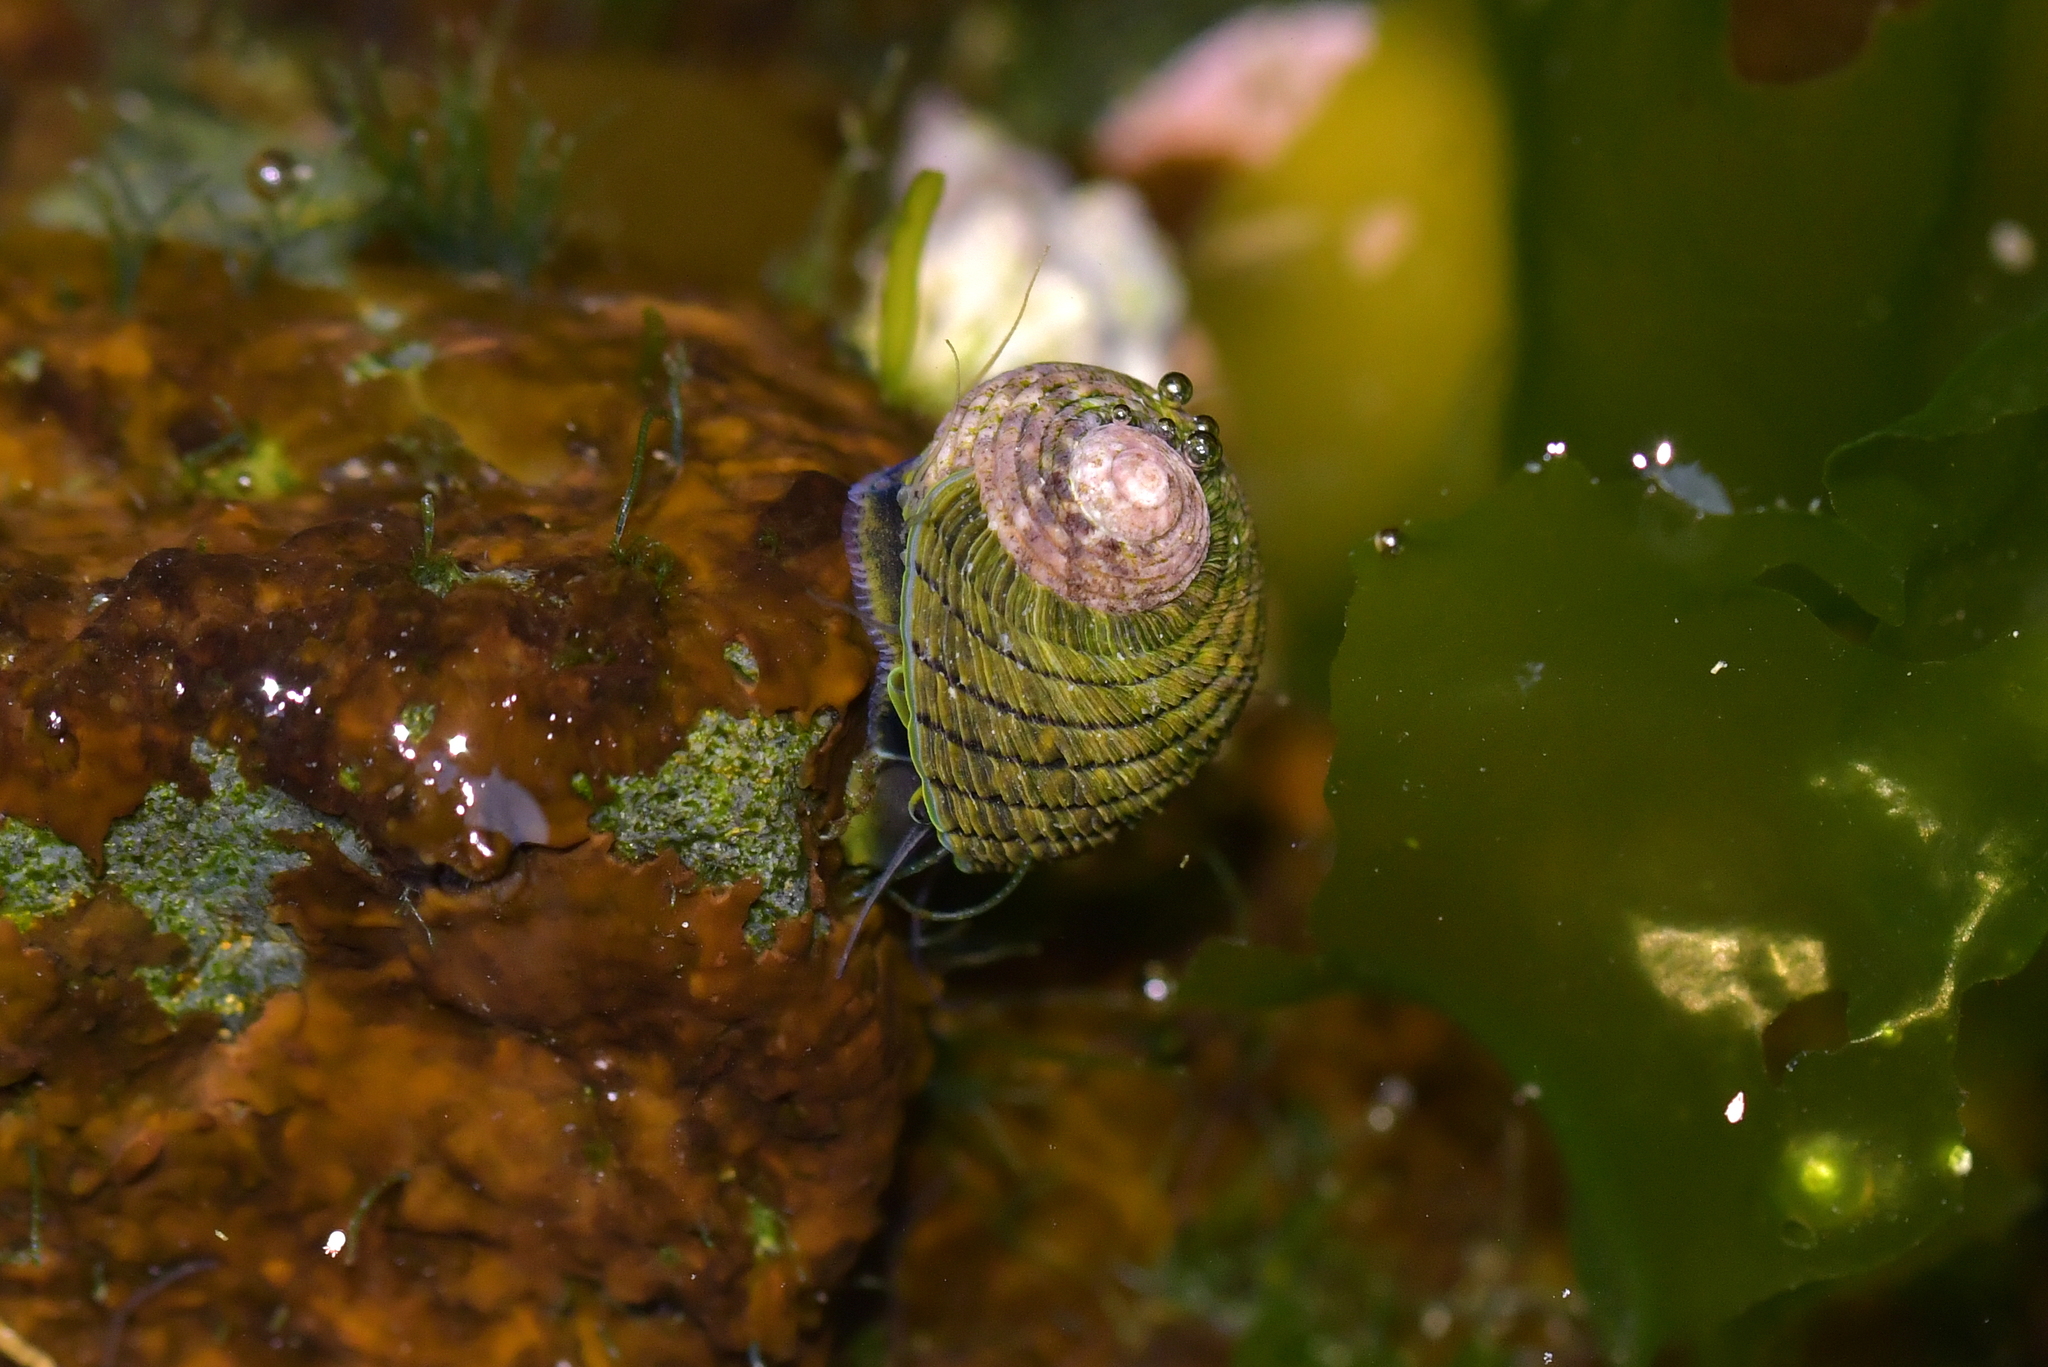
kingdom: Animalia
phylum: Mollusca
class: Gastropoda
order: Trochida
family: Trochidae
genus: Diloma
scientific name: Diloma aethiops
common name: Scorched monodont
